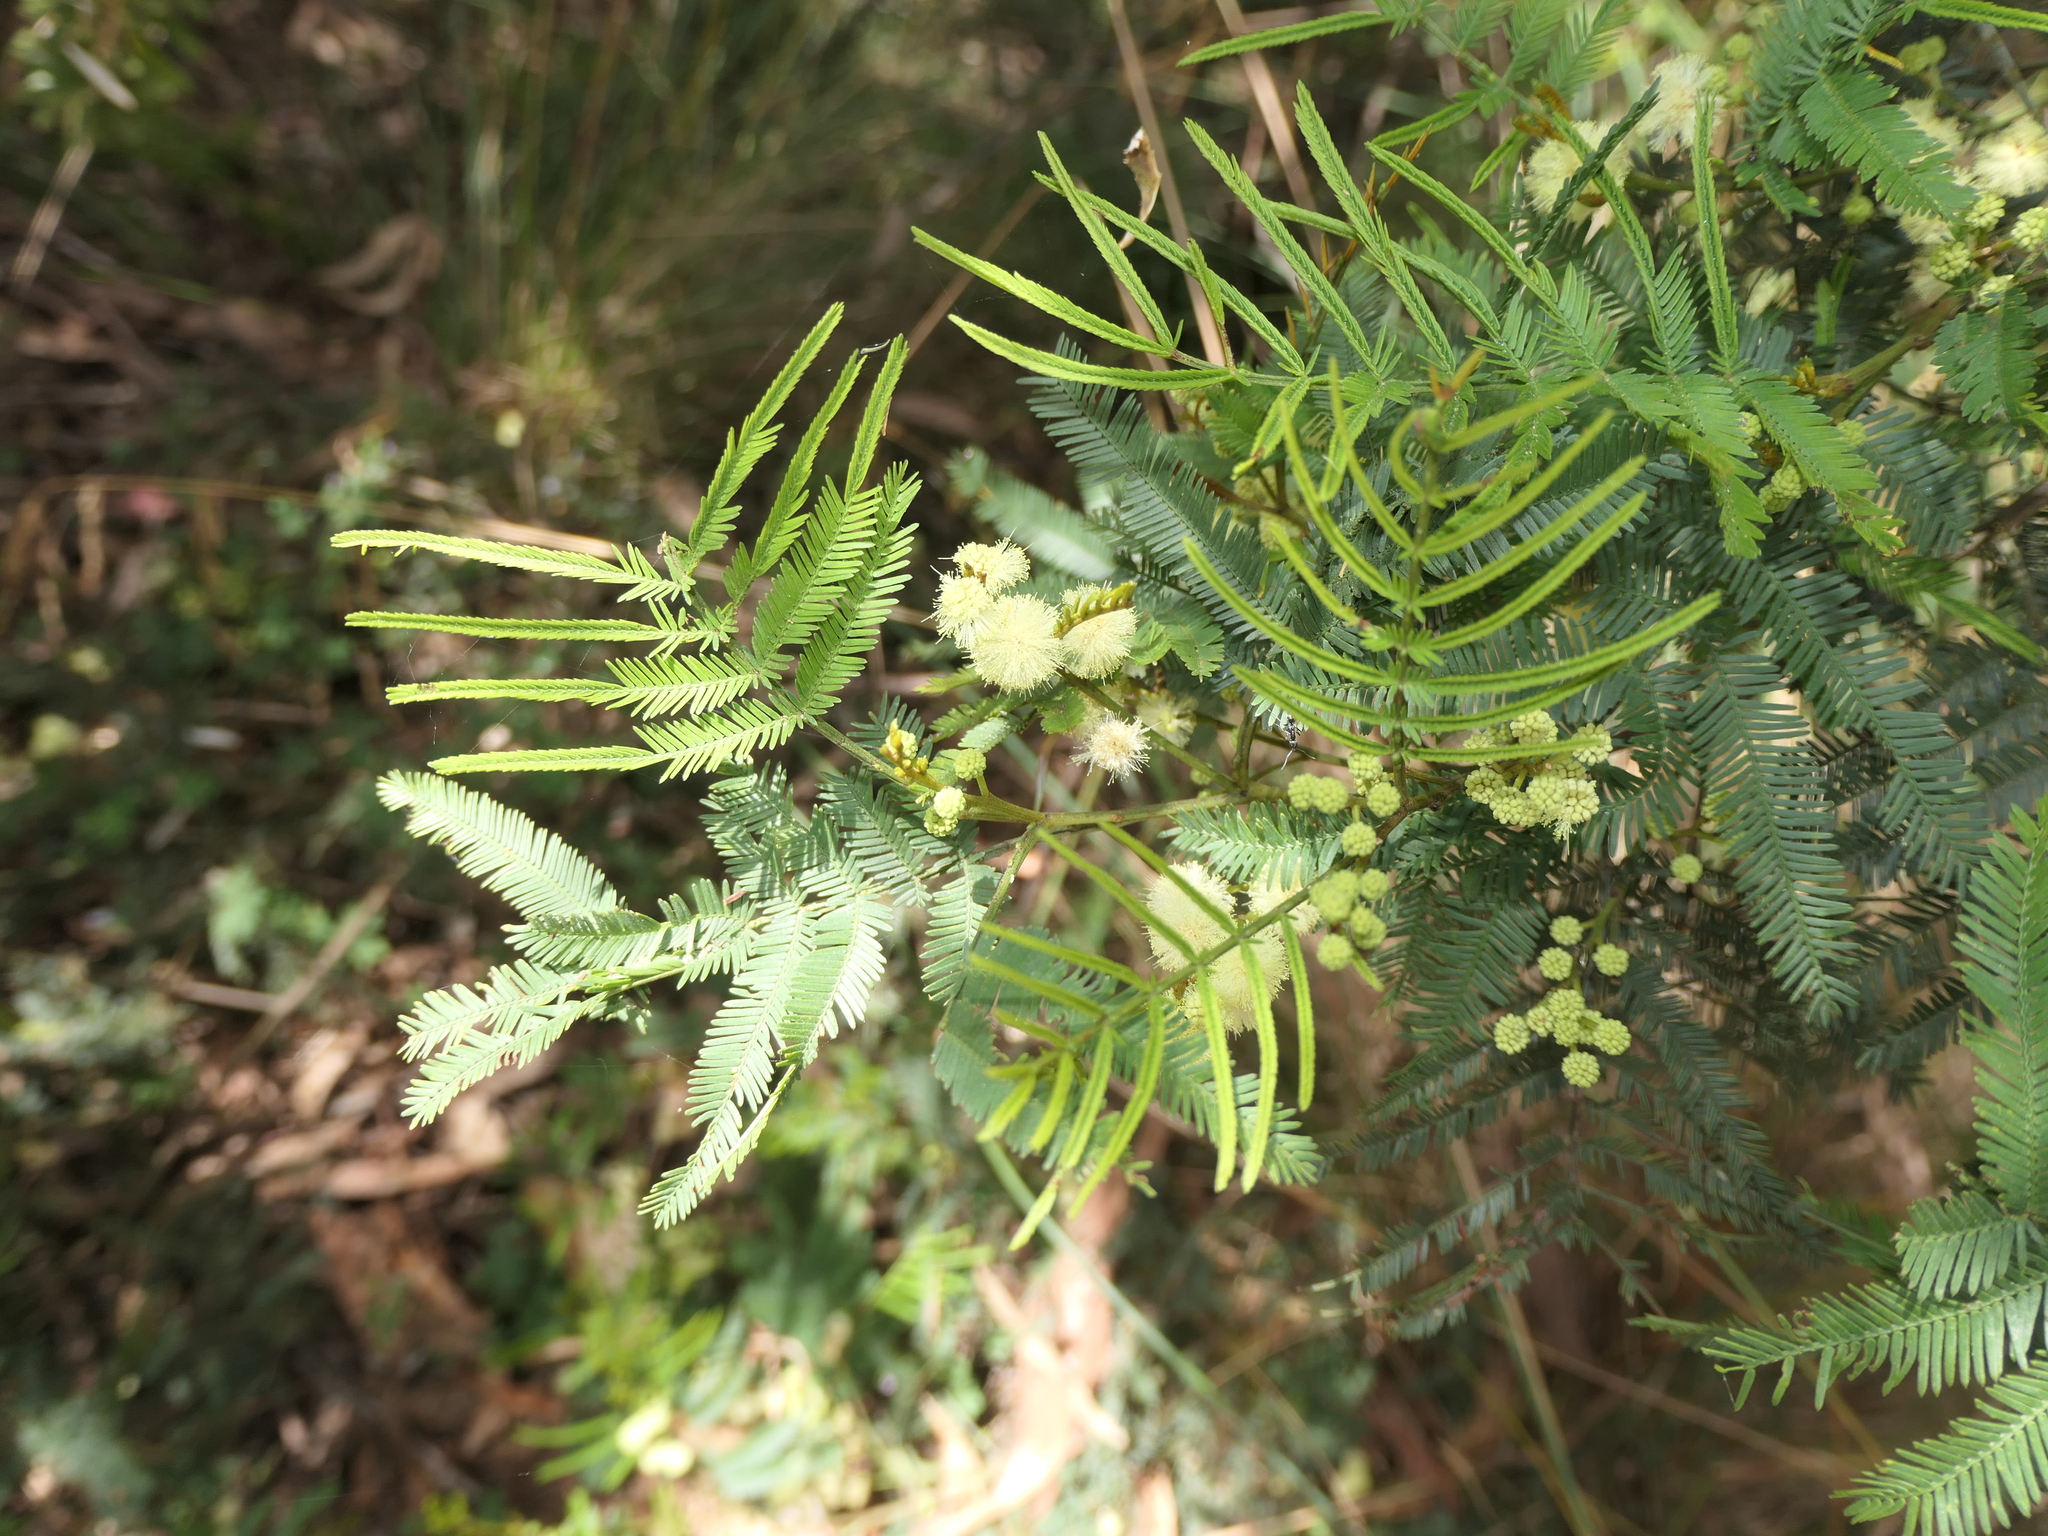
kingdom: Plantae
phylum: Tracheophyta
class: Magnoliopsida
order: Fabales
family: Fabaceae
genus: Acacia
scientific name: Acacia parramattensis
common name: Sydney green wattle
